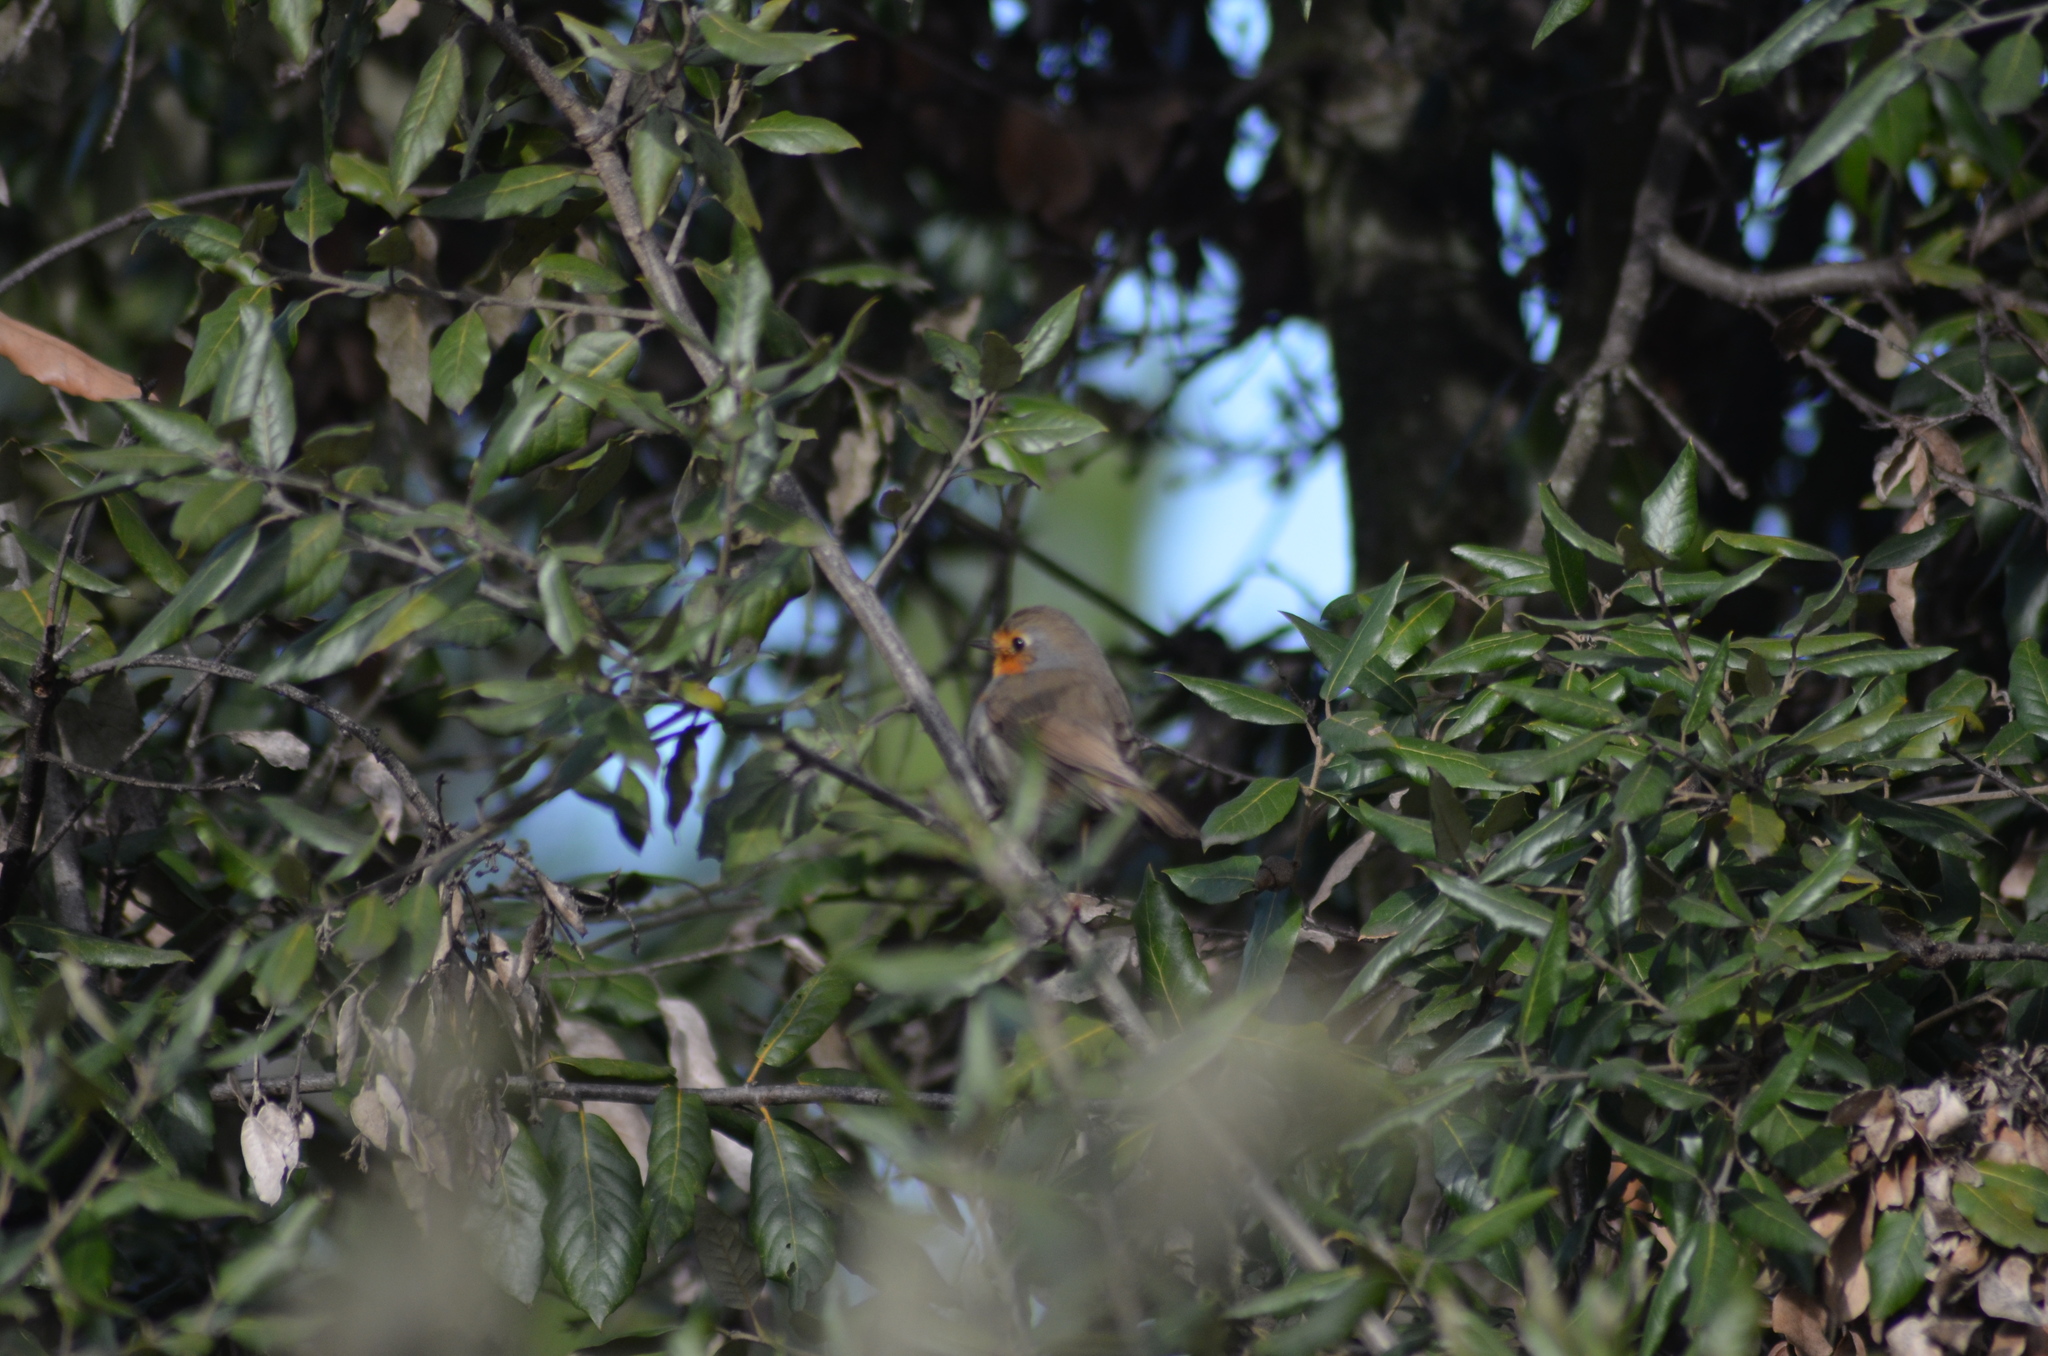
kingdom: Animalia
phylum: Chordata
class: Aves
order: Passeriformes
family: Muscicapidae
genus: Erithacus
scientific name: Erithacus rubecula
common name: European robin
